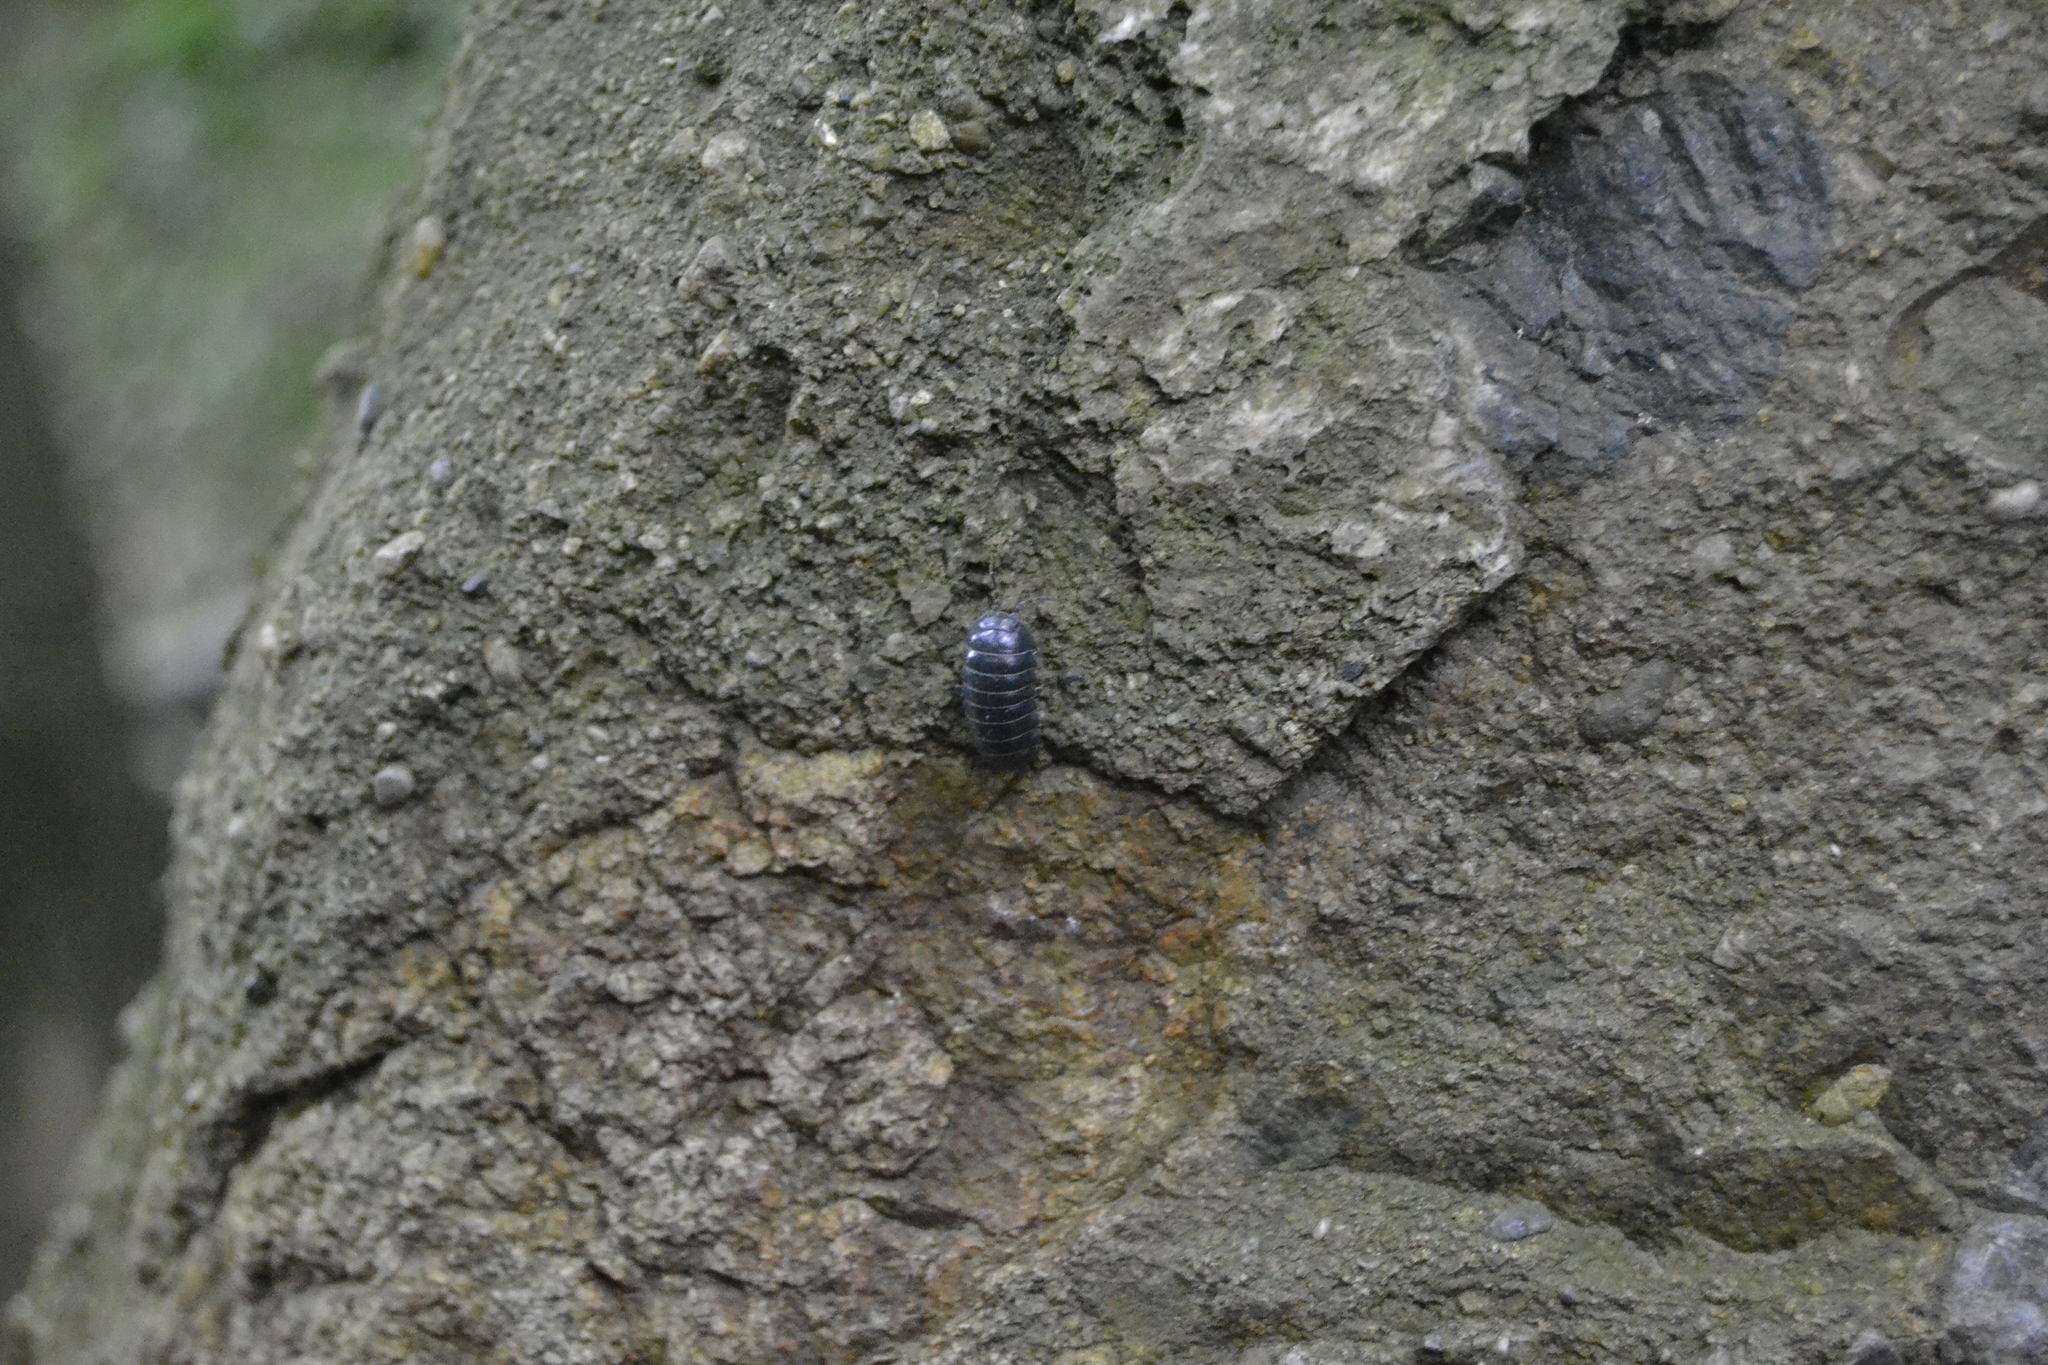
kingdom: Animalia
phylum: Arthropoda
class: Malacostraca
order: Isopoda
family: Armadillidiidae
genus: Armadillidium
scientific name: Armadillidium vulgare
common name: Common pill woodlouse
